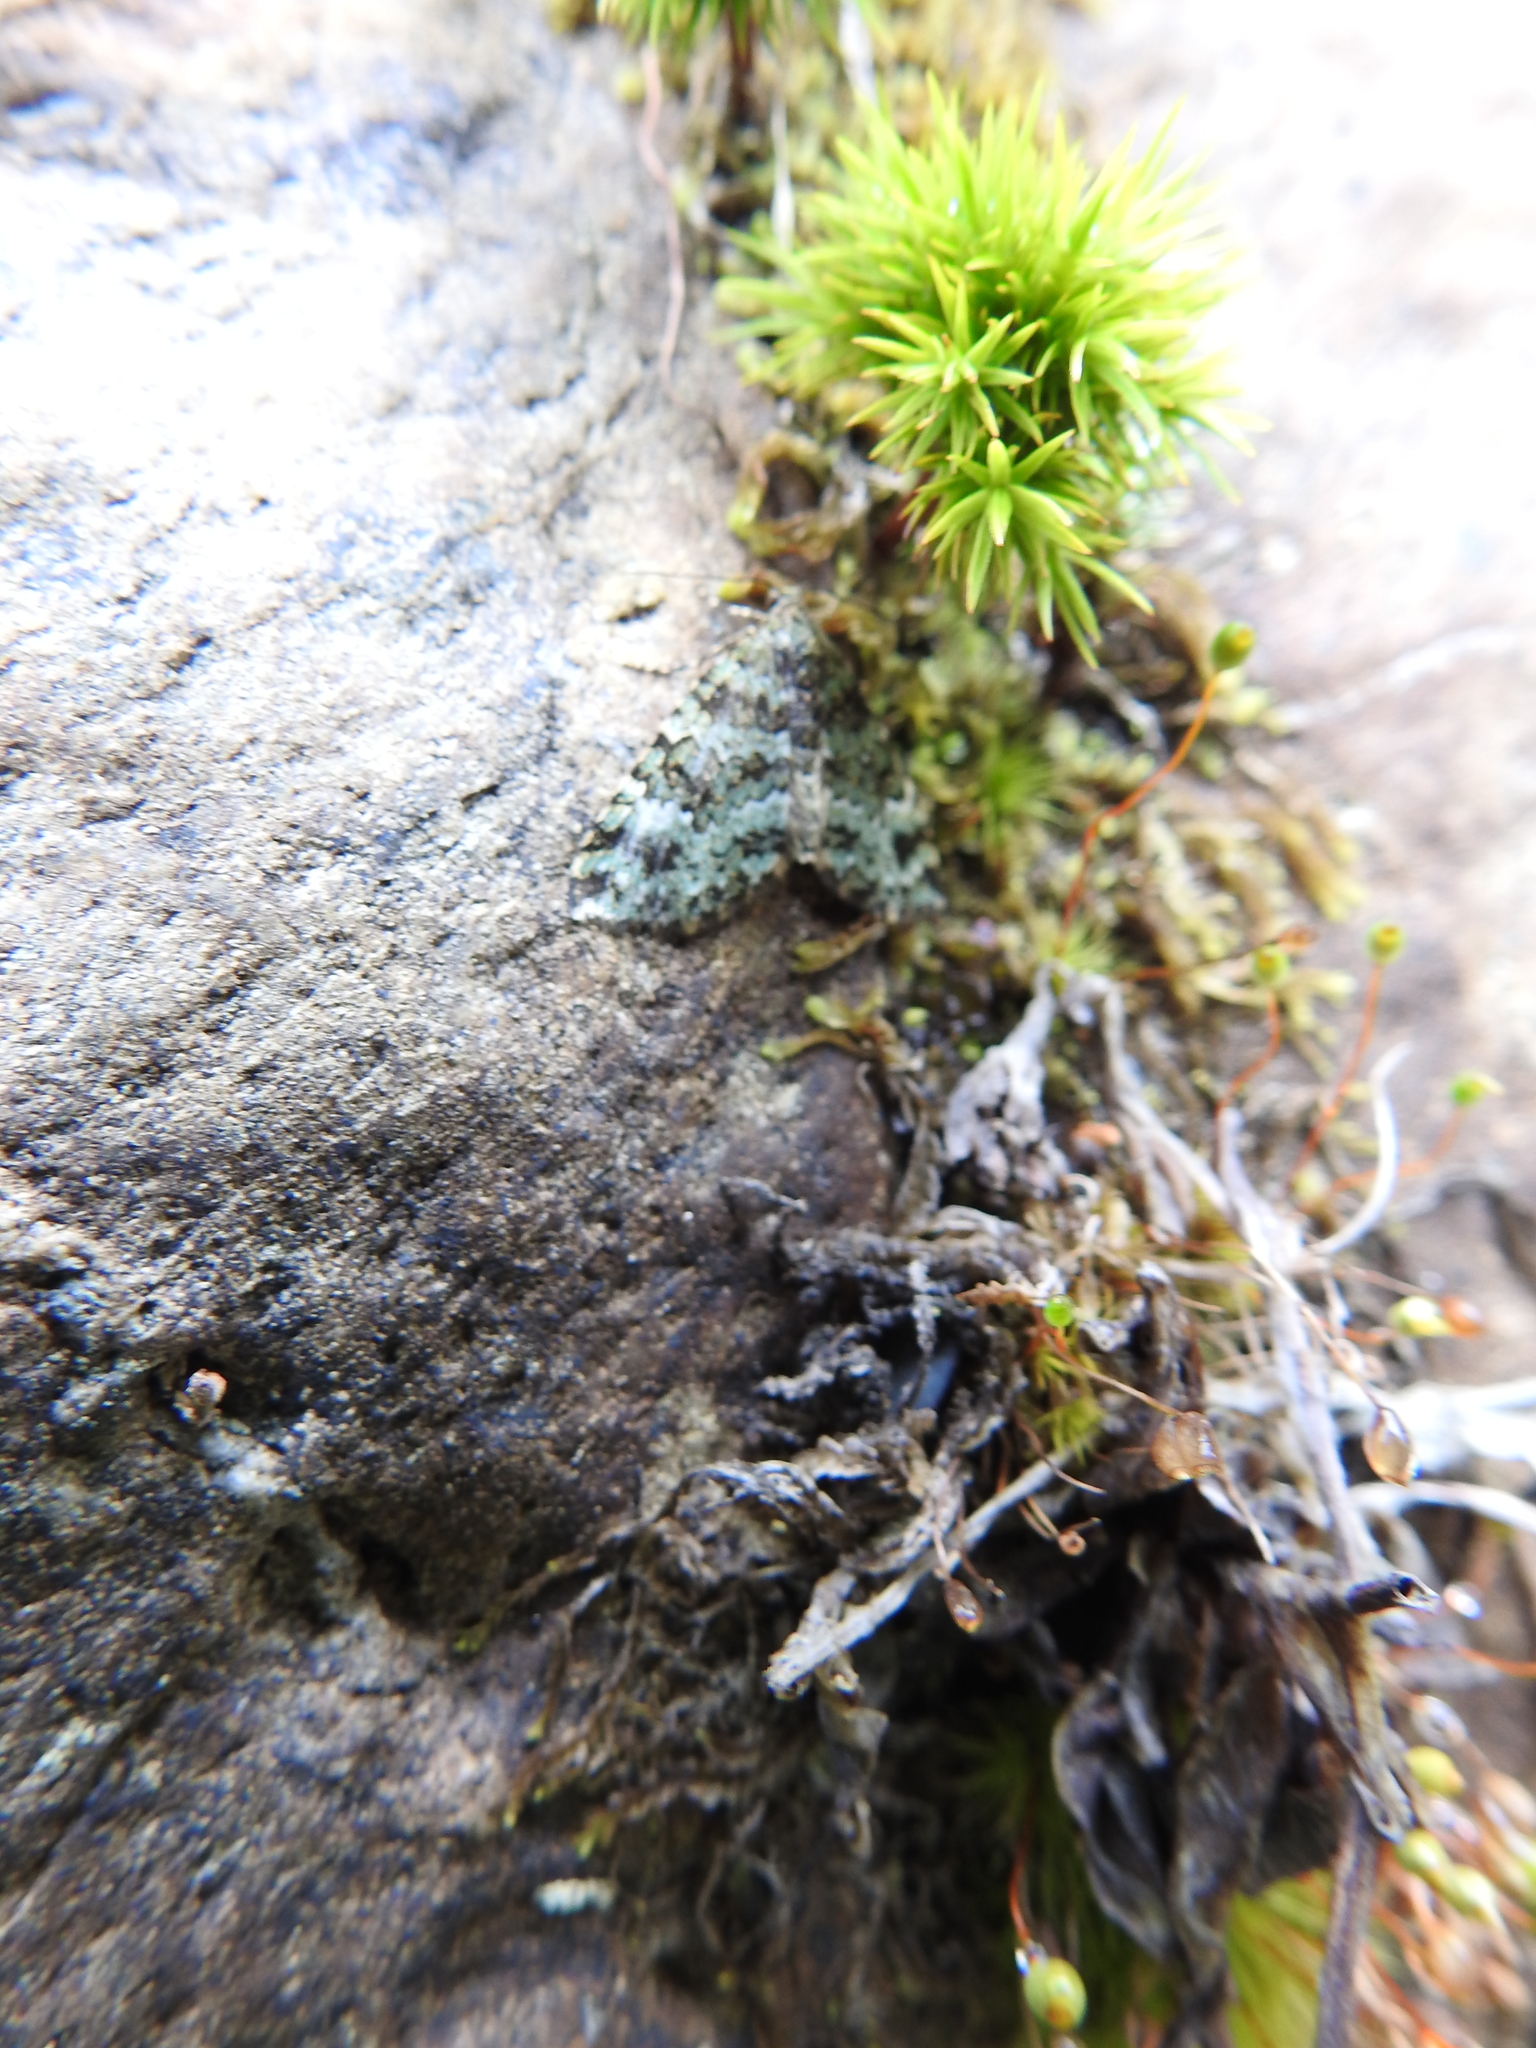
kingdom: Animalia
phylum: Arthropoda
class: Insecta
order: Lepidoptera
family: Geometridae
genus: Perizoma
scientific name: Perizoma pastoralis
